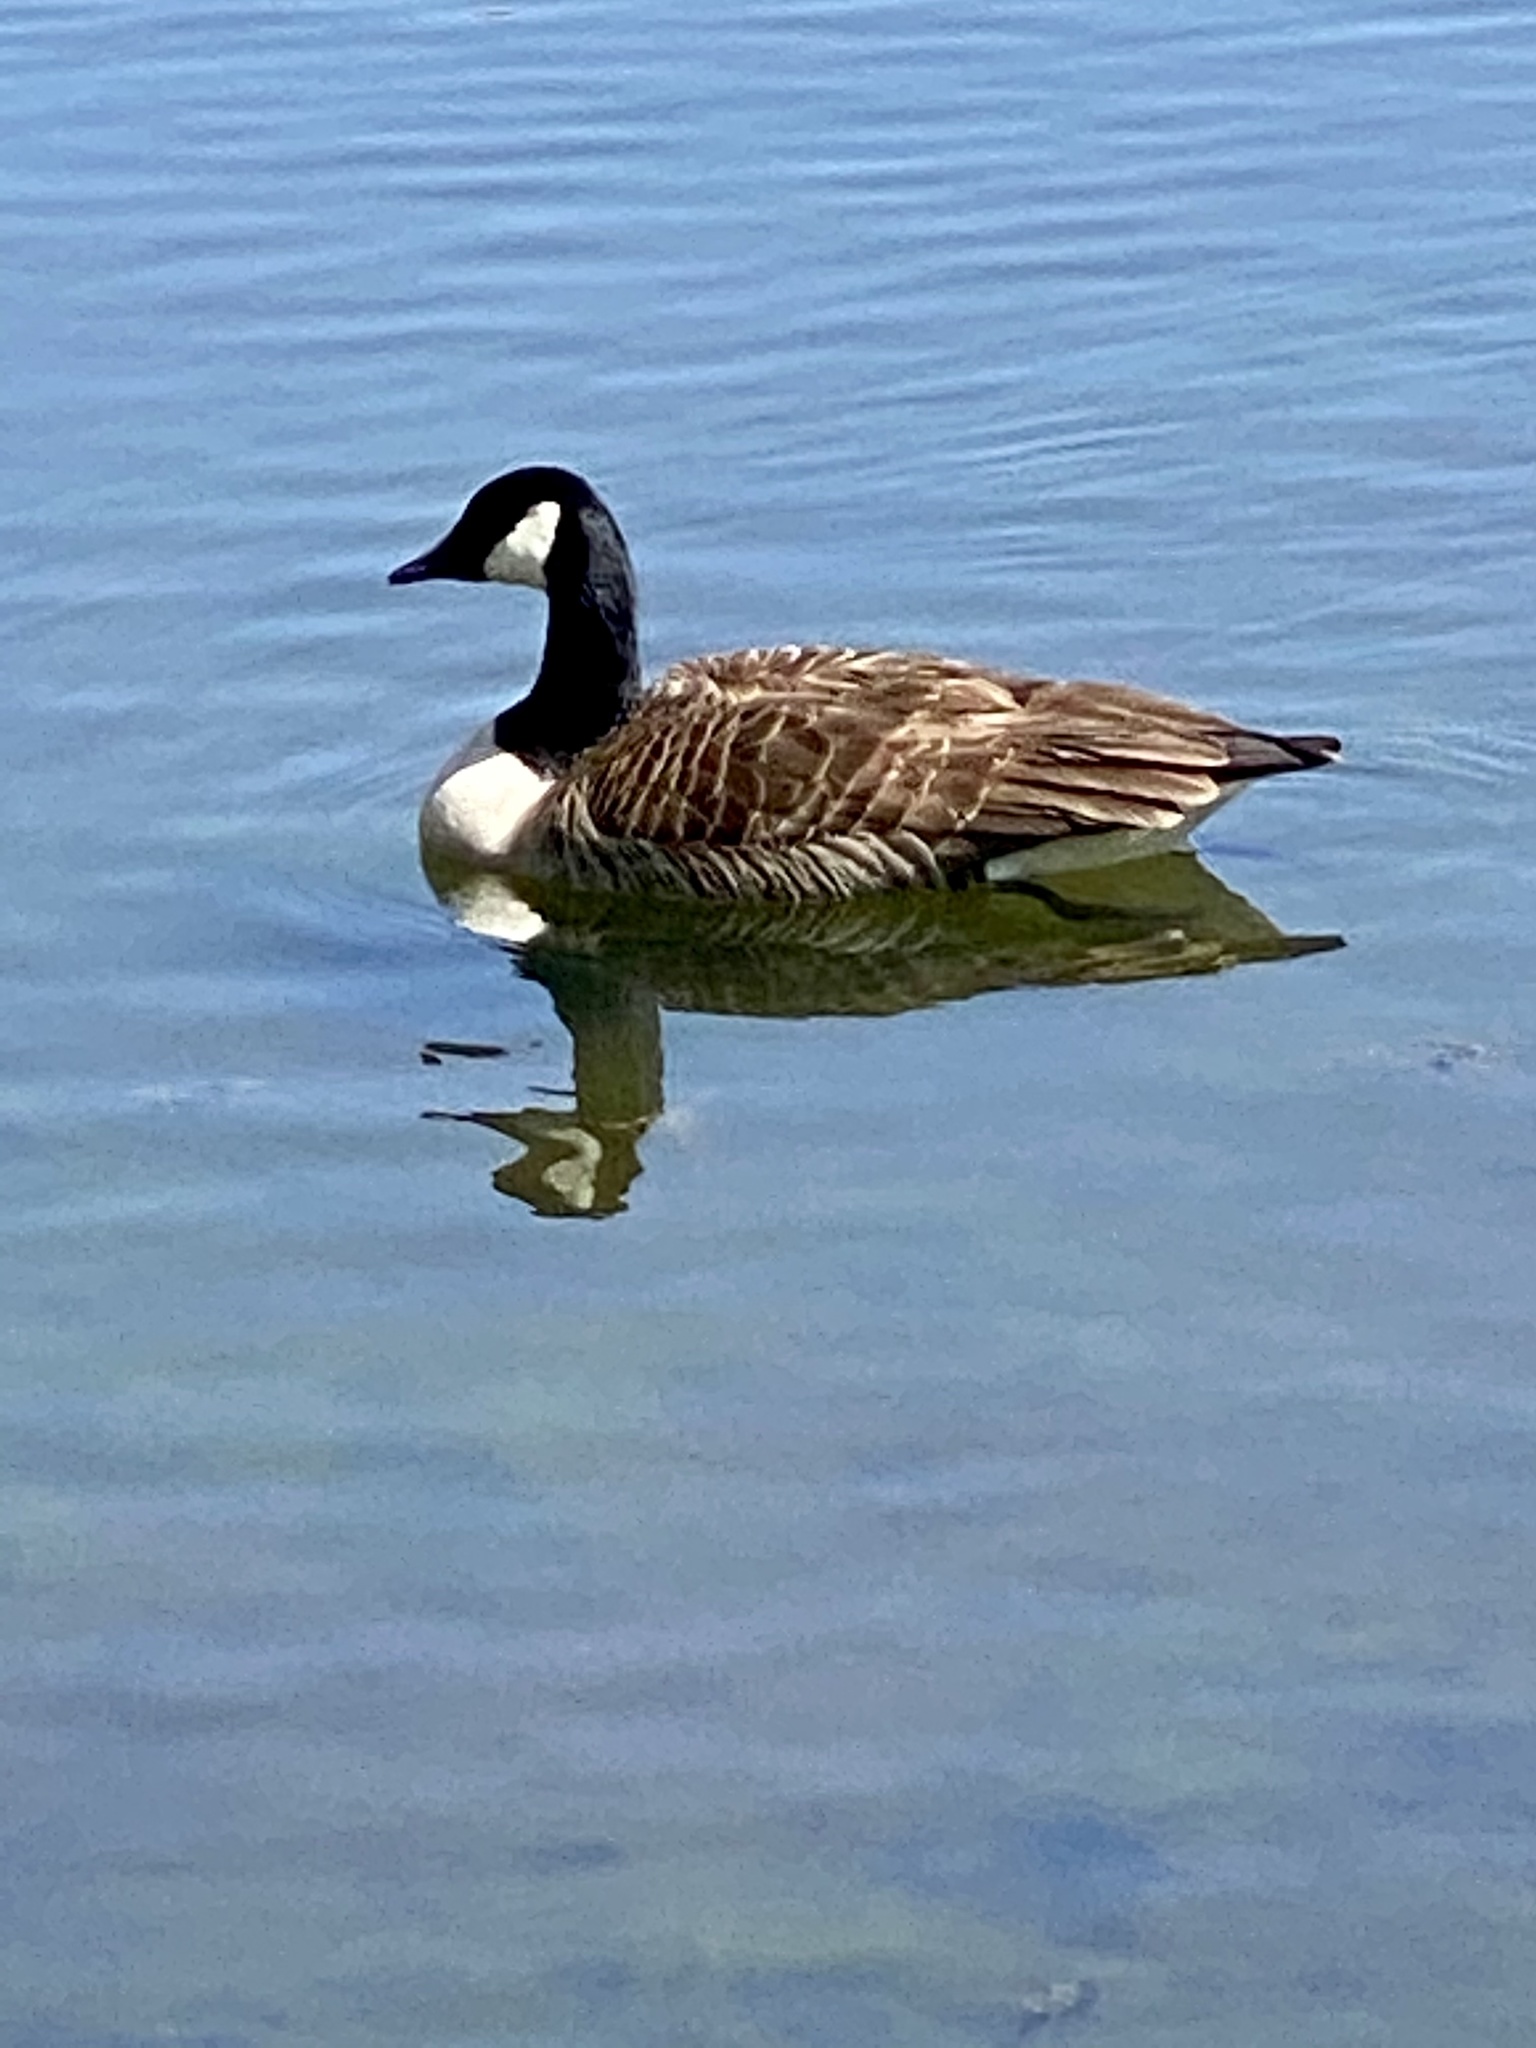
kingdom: Animalia
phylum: Chordata
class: Aves
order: Anseriformes
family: Anatidae
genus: Branta
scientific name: Branta canadensis
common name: Canada goose
